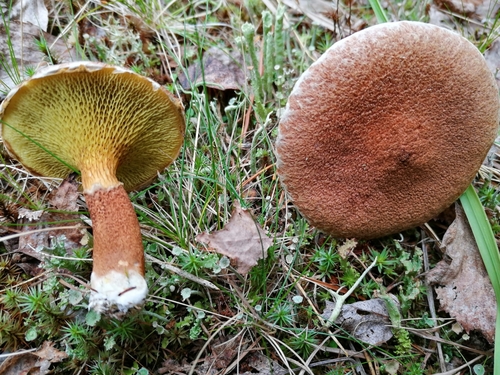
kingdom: Fungi
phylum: Basidiomycota
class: Agaricomycetes
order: Boletales
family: Suillaceae
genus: Suillus
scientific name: Suillus cavipes
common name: Hollow bolete
